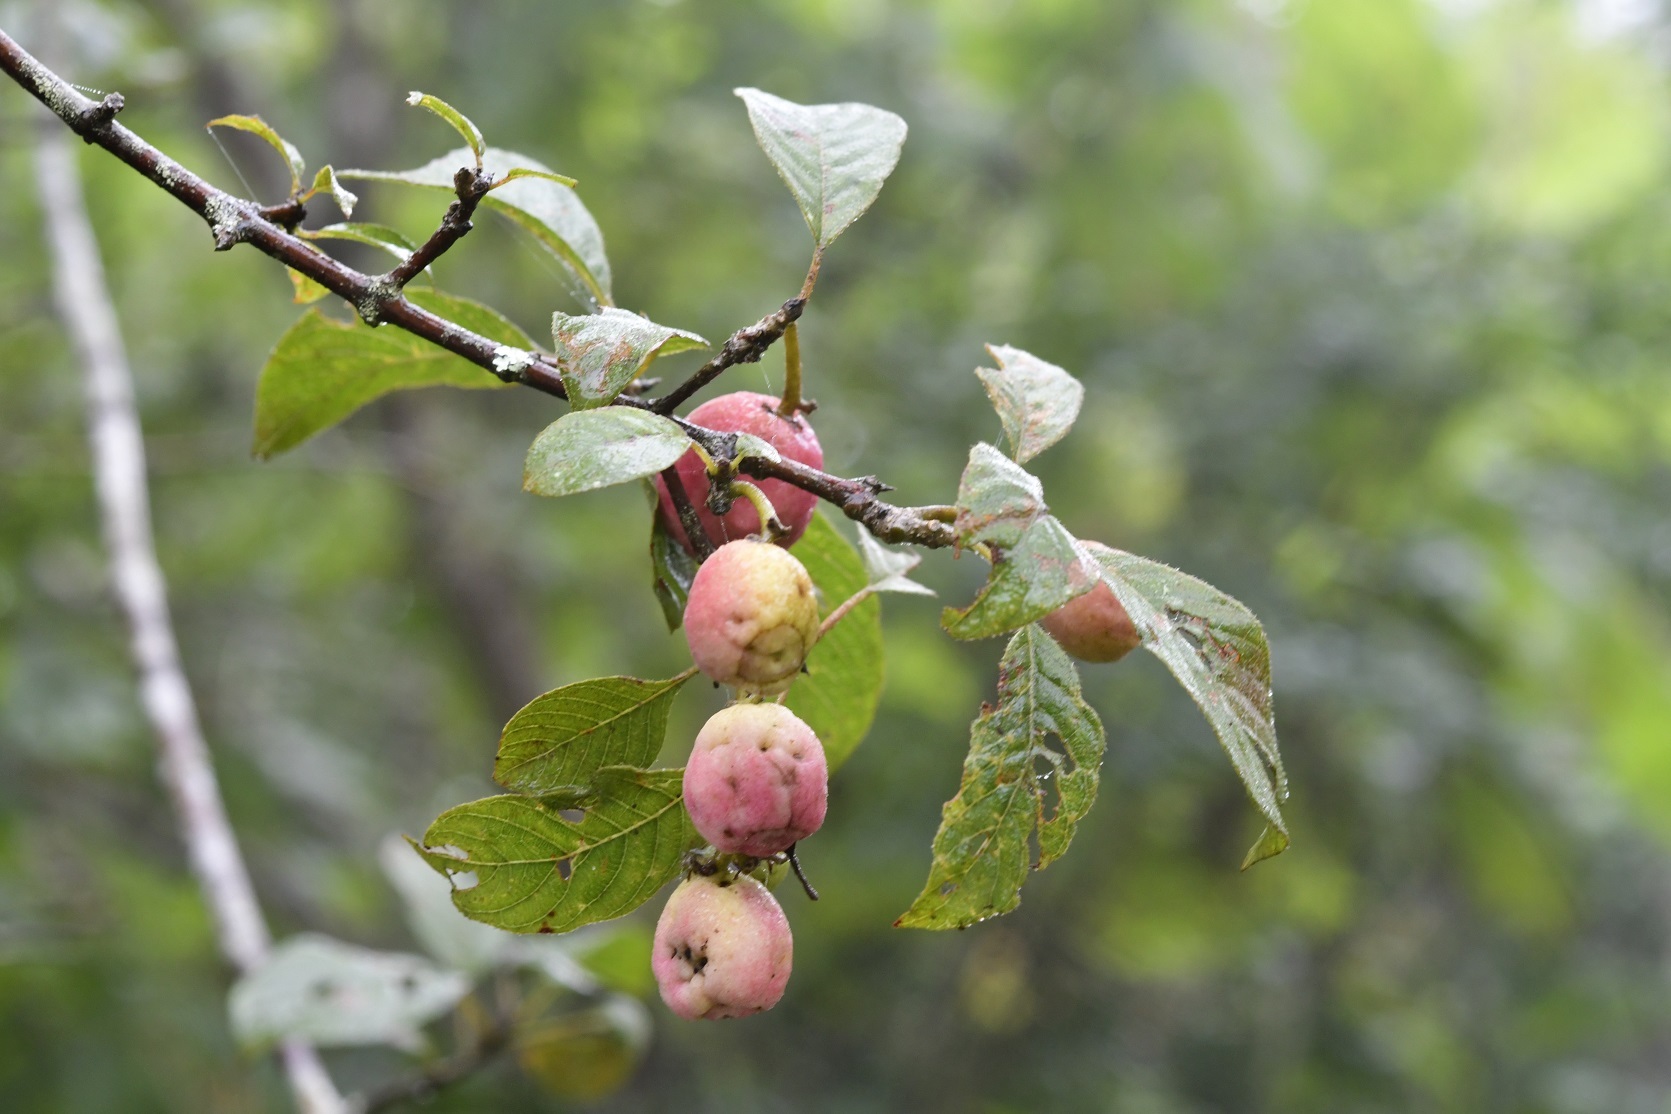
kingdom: Plantae
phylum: Tracheophyta
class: Magnoliopsida
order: Gentianales
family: Rubiaceae
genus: Guettarda
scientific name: Guettarda macrosperma
